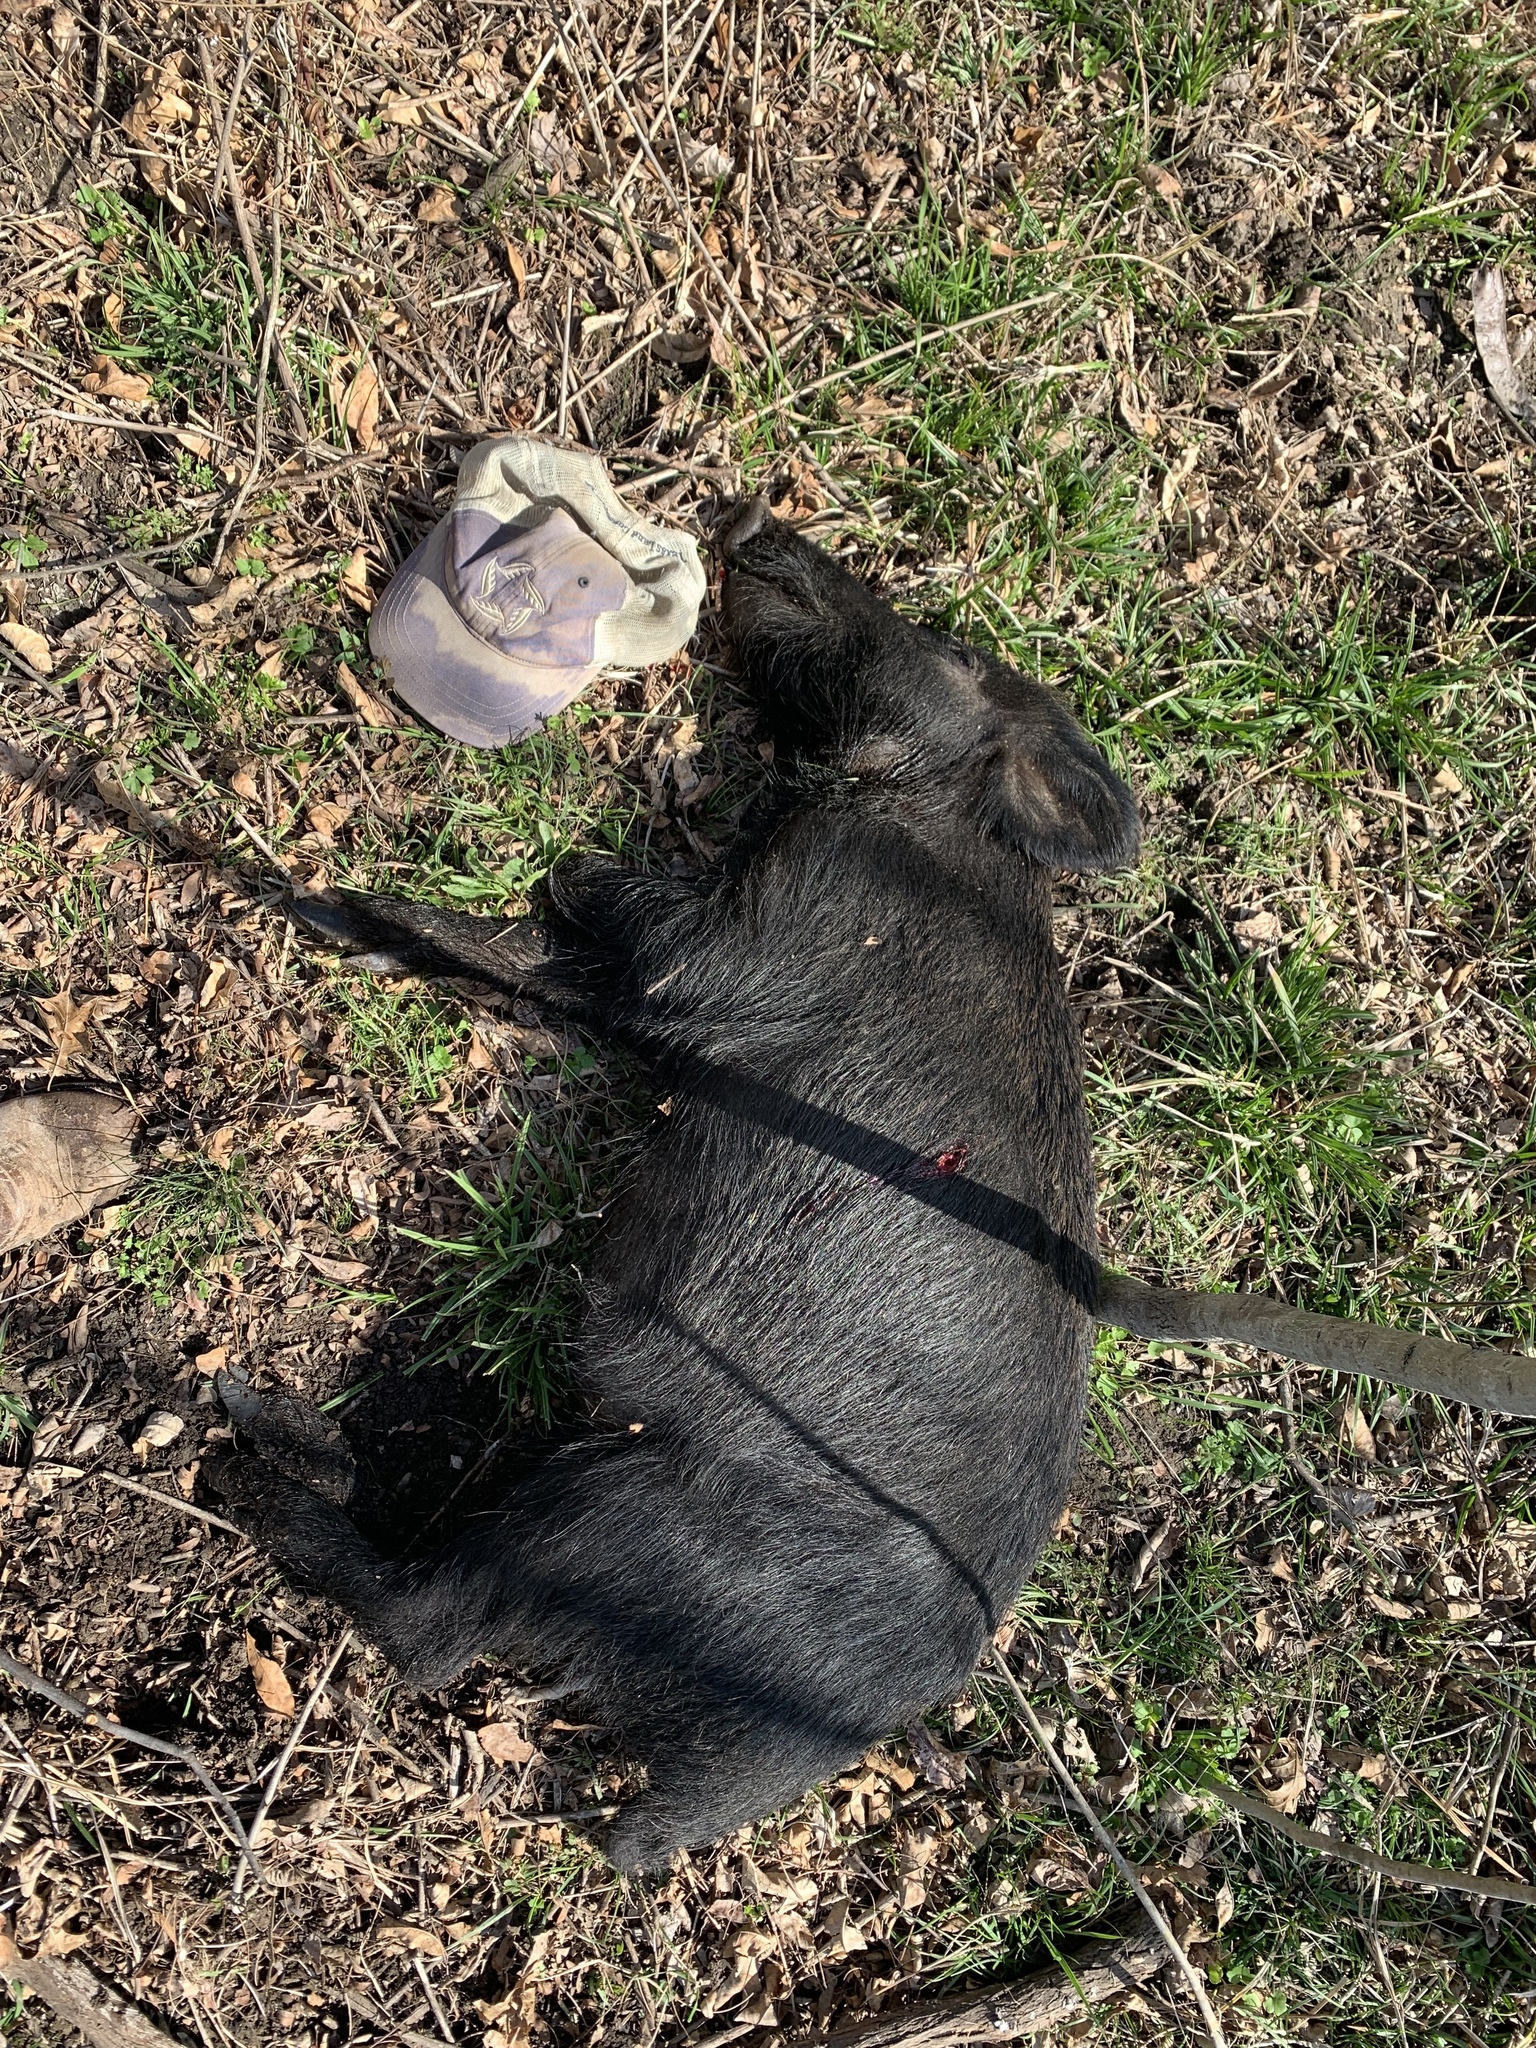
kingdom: Animalia
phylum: Chordata
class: Mammalia
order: Artiodactyla
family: Suidae
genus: Sus
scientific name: Sus scrofa
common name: Wild boar
